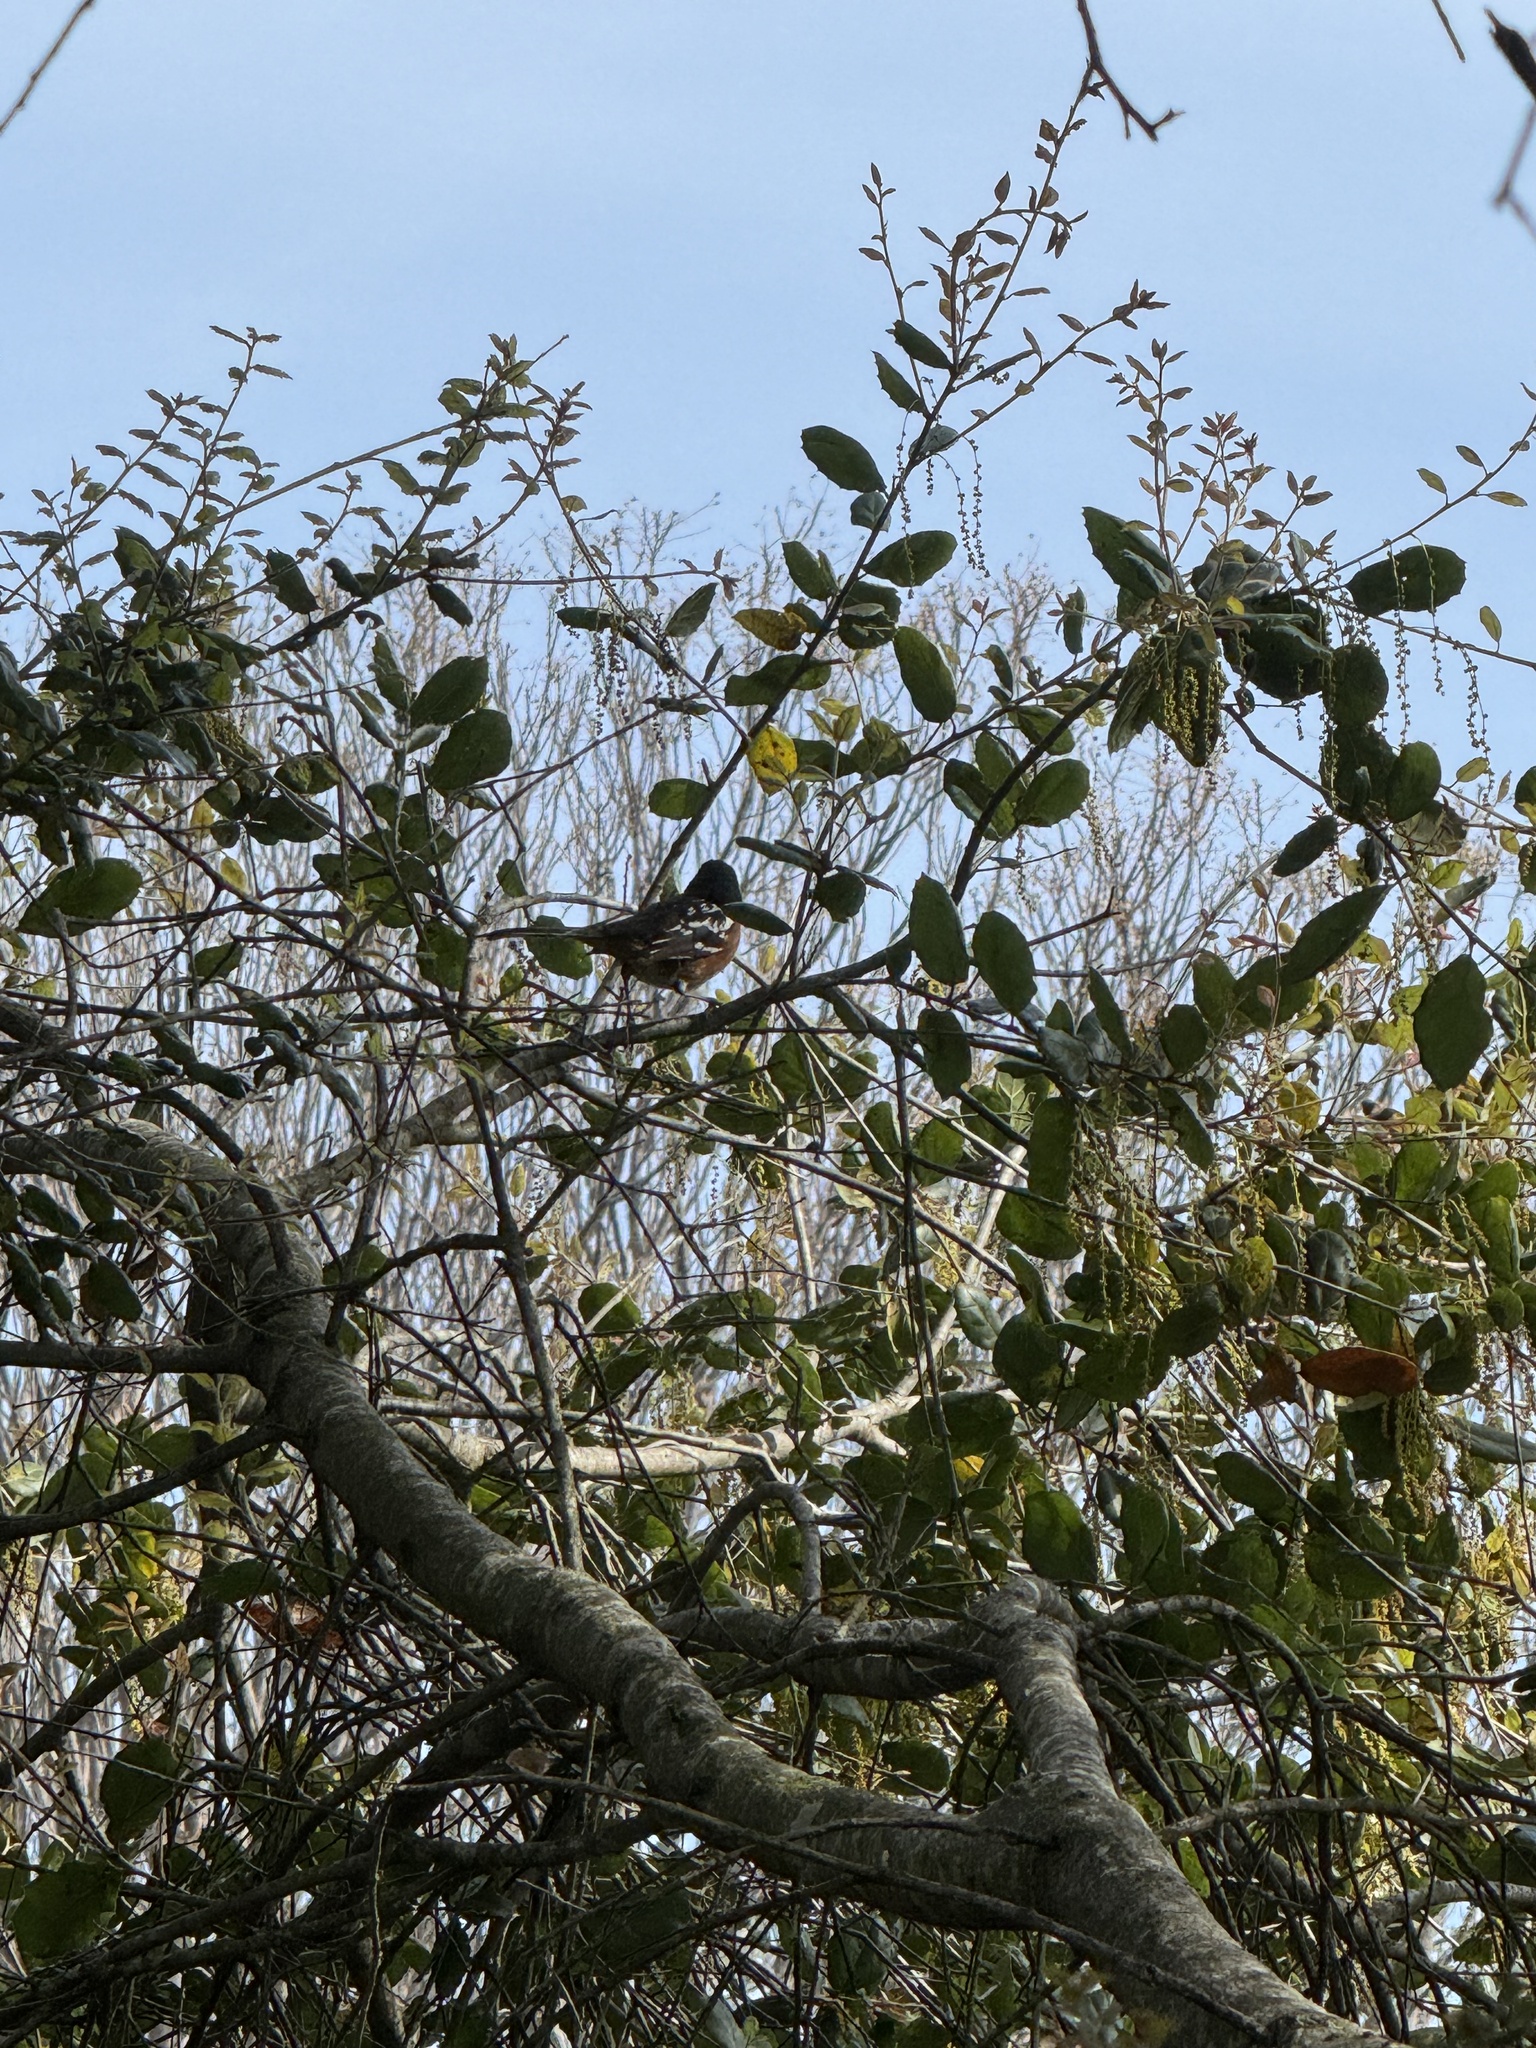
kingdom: Animalia
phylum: Chordata
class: Aves
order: Passeriformes
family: Passerellidae
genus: Pipilo
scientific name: Pipilo maculatus
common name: Spotted towhee
